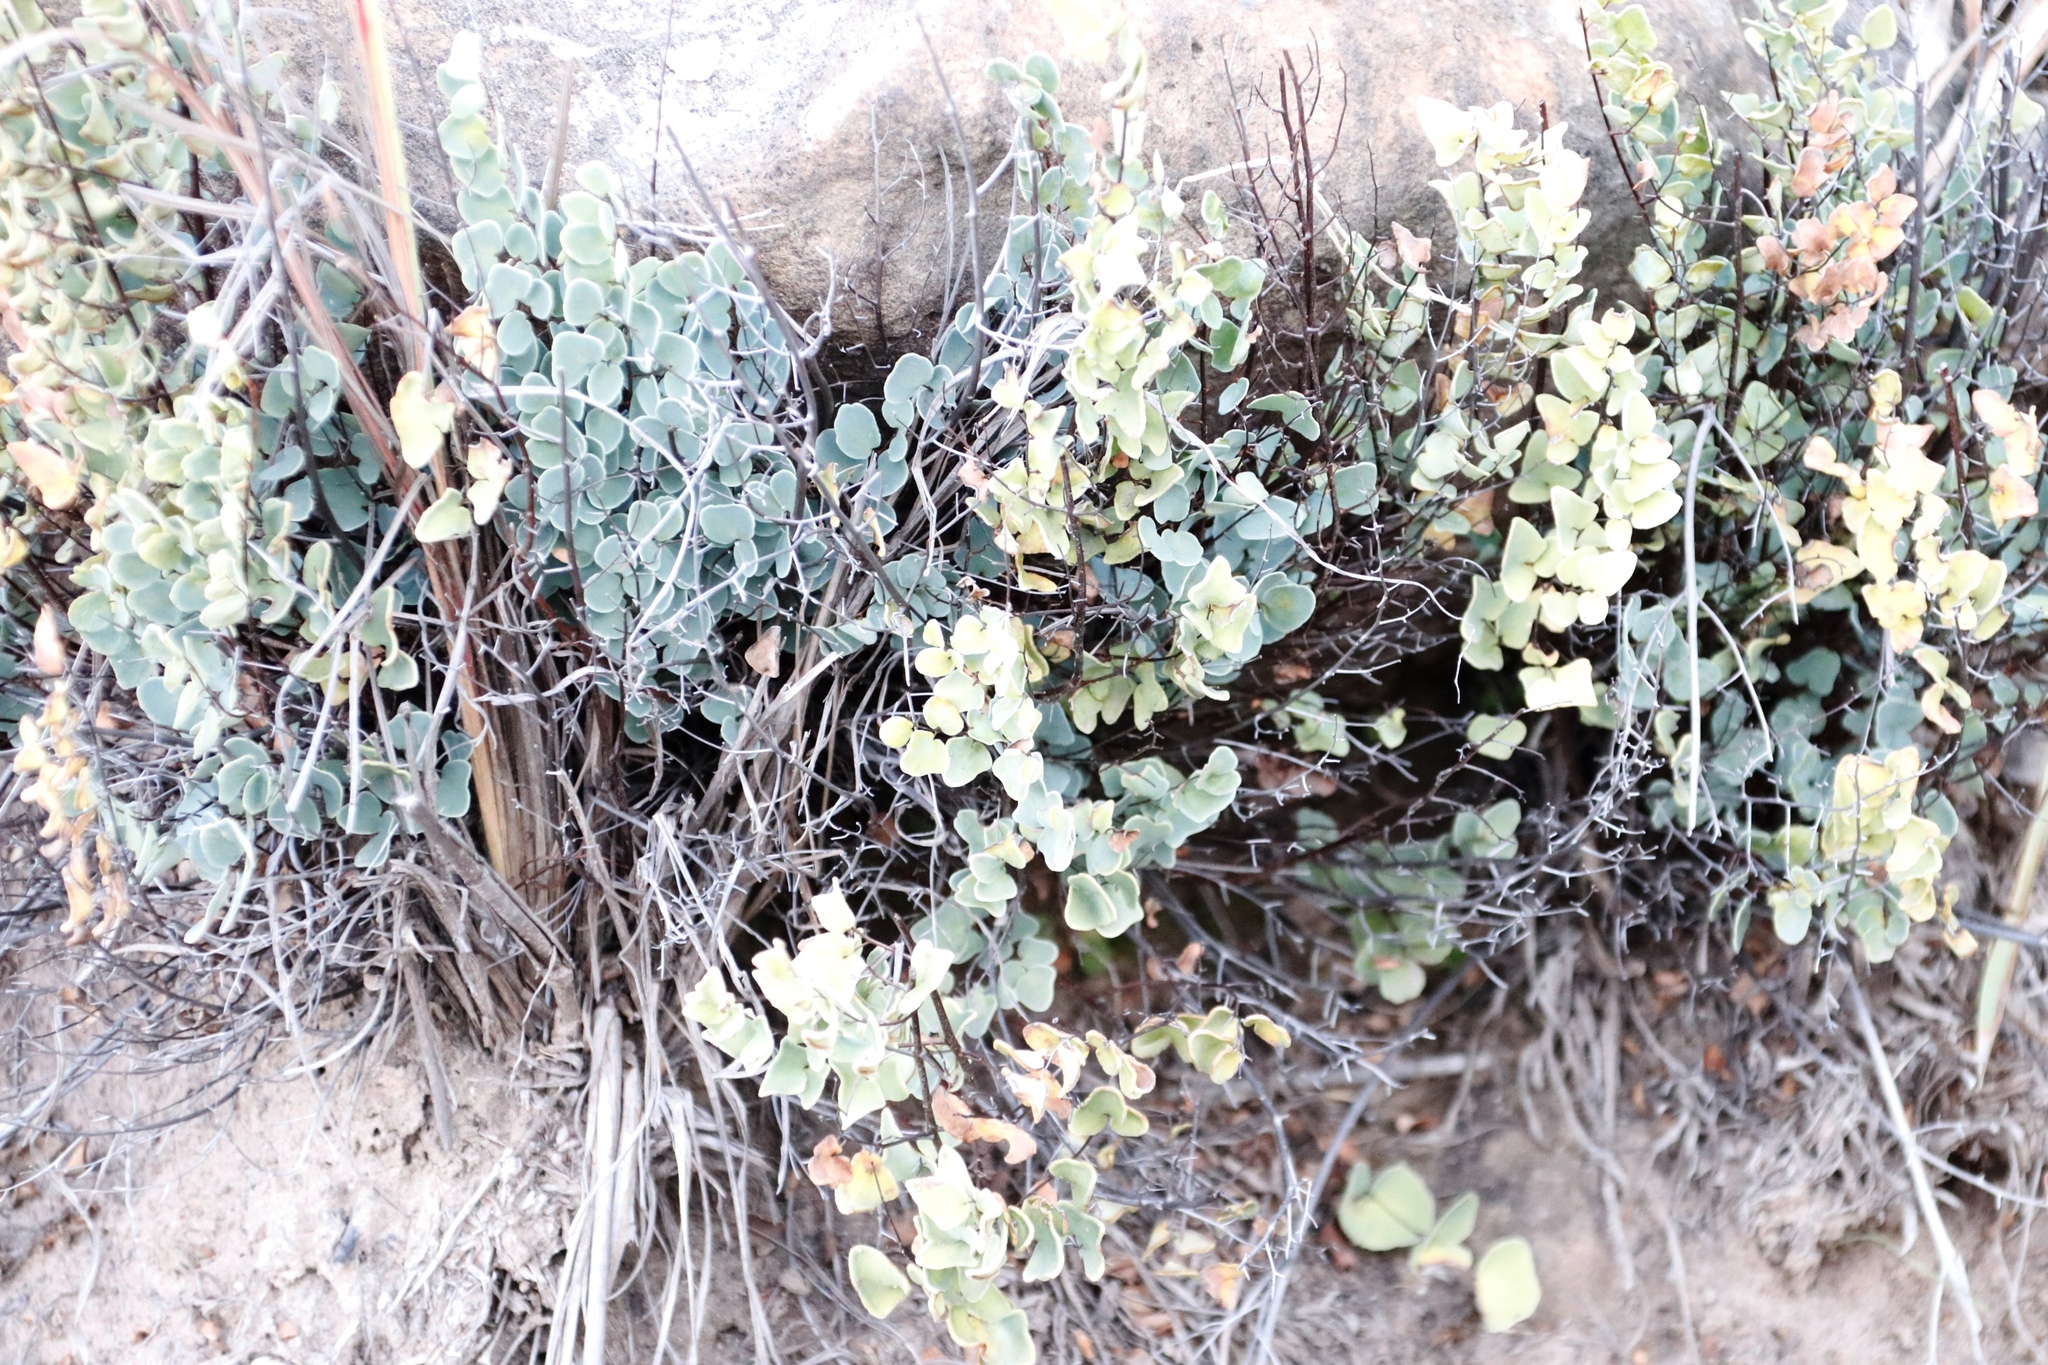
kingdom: Plantae
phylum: Tracheophyta
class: Polypodiopsida
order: Polypodiales
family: Pteridaceae
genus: Pellaea
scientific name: Pellaea calomelanos
